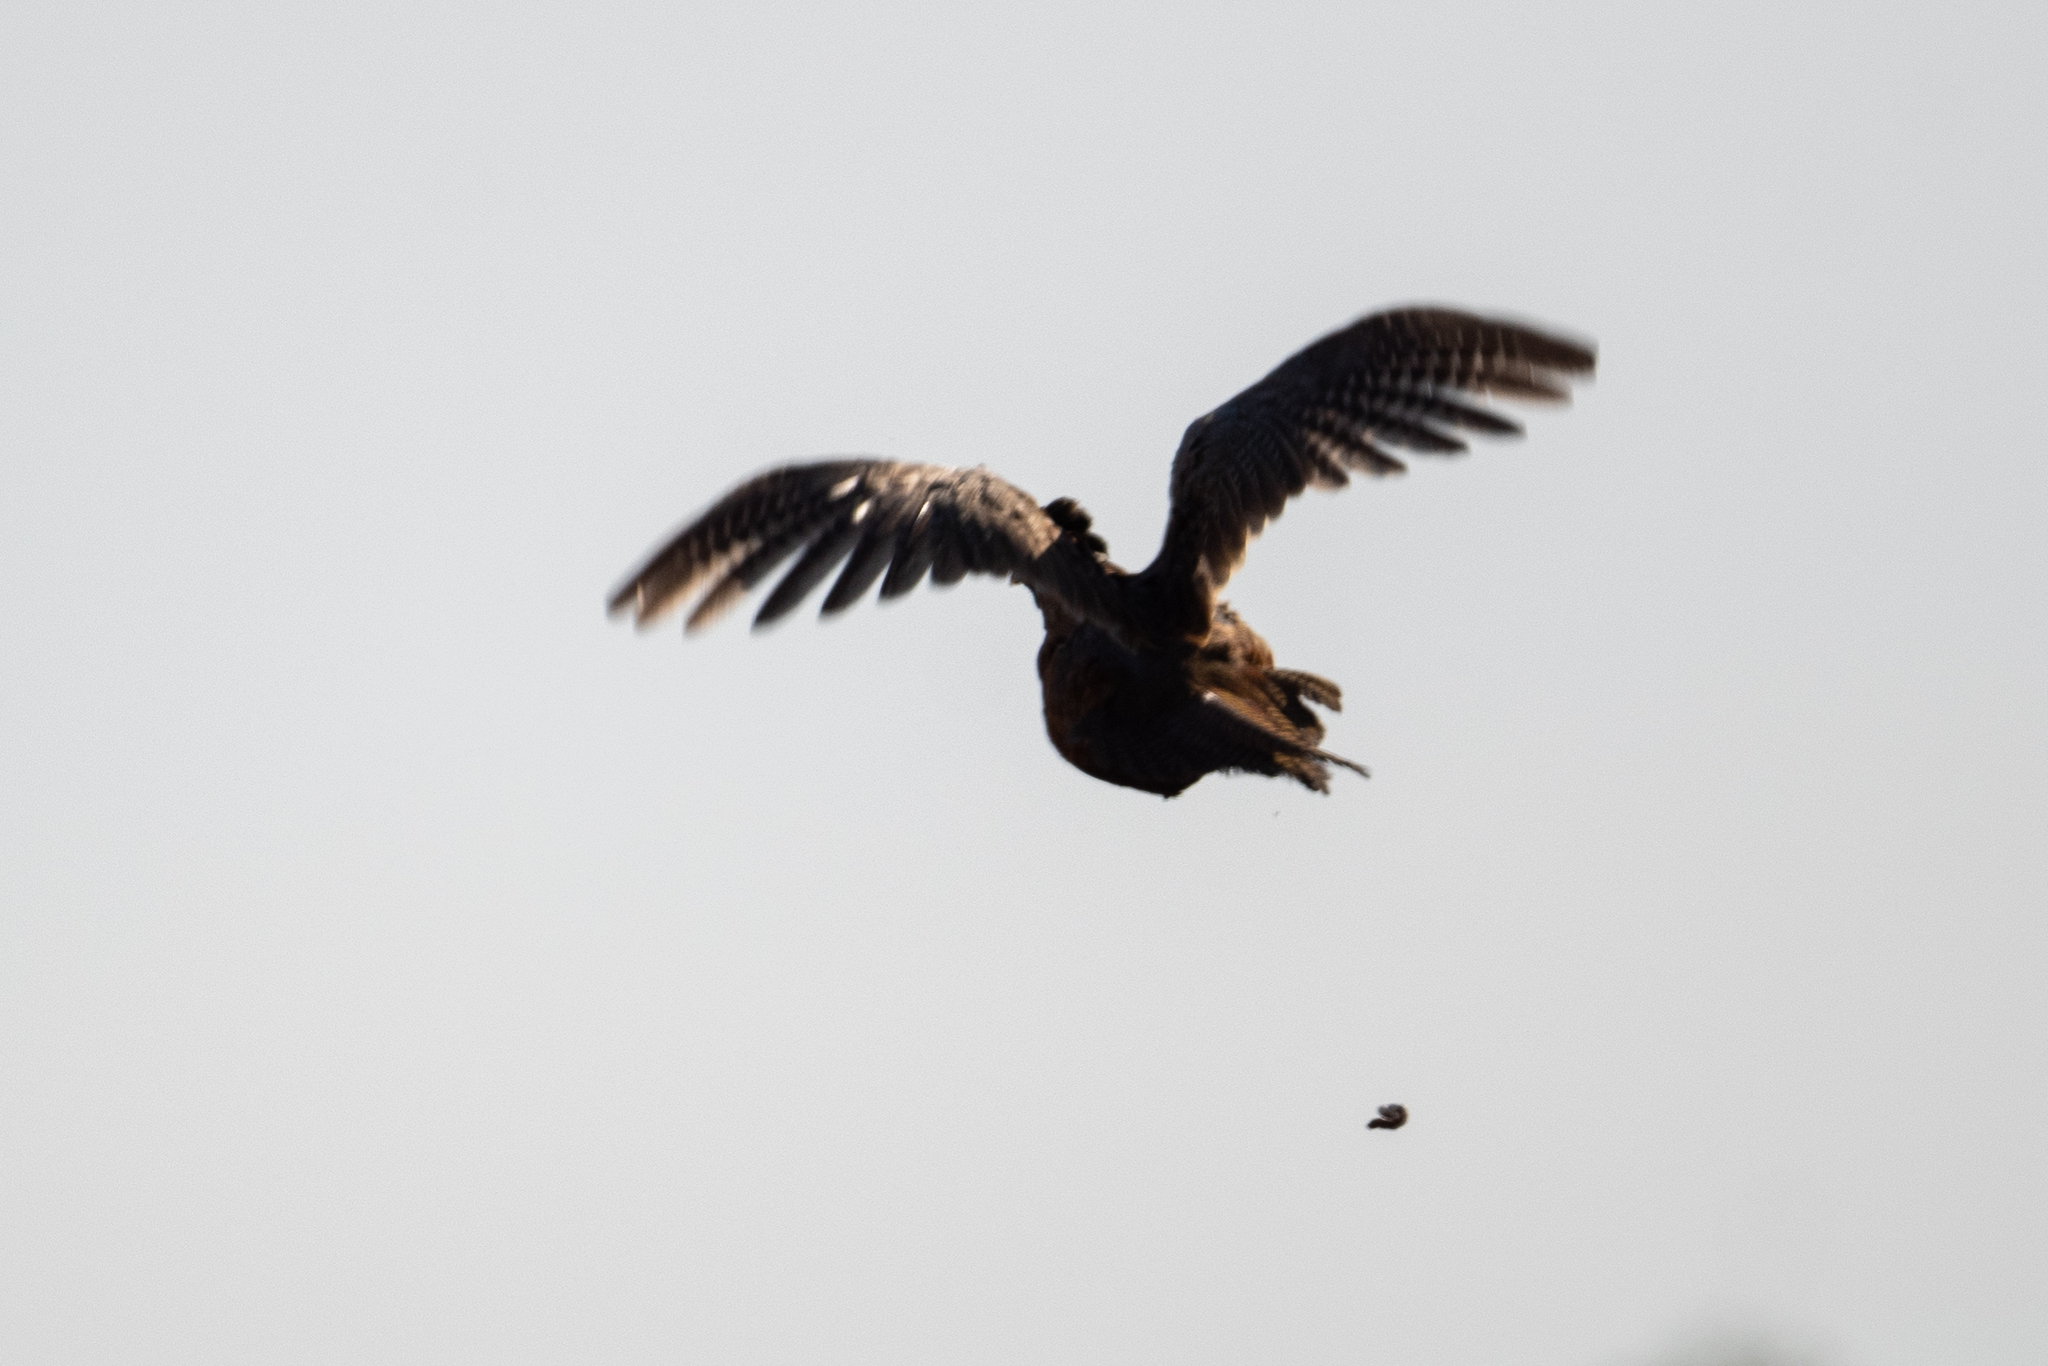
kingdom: Animalia
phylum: Chordata
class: Aves
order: Galliformes
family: Phasianidae
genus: Phasianus
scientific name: Phasianus colchicus
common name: Common pheasant
